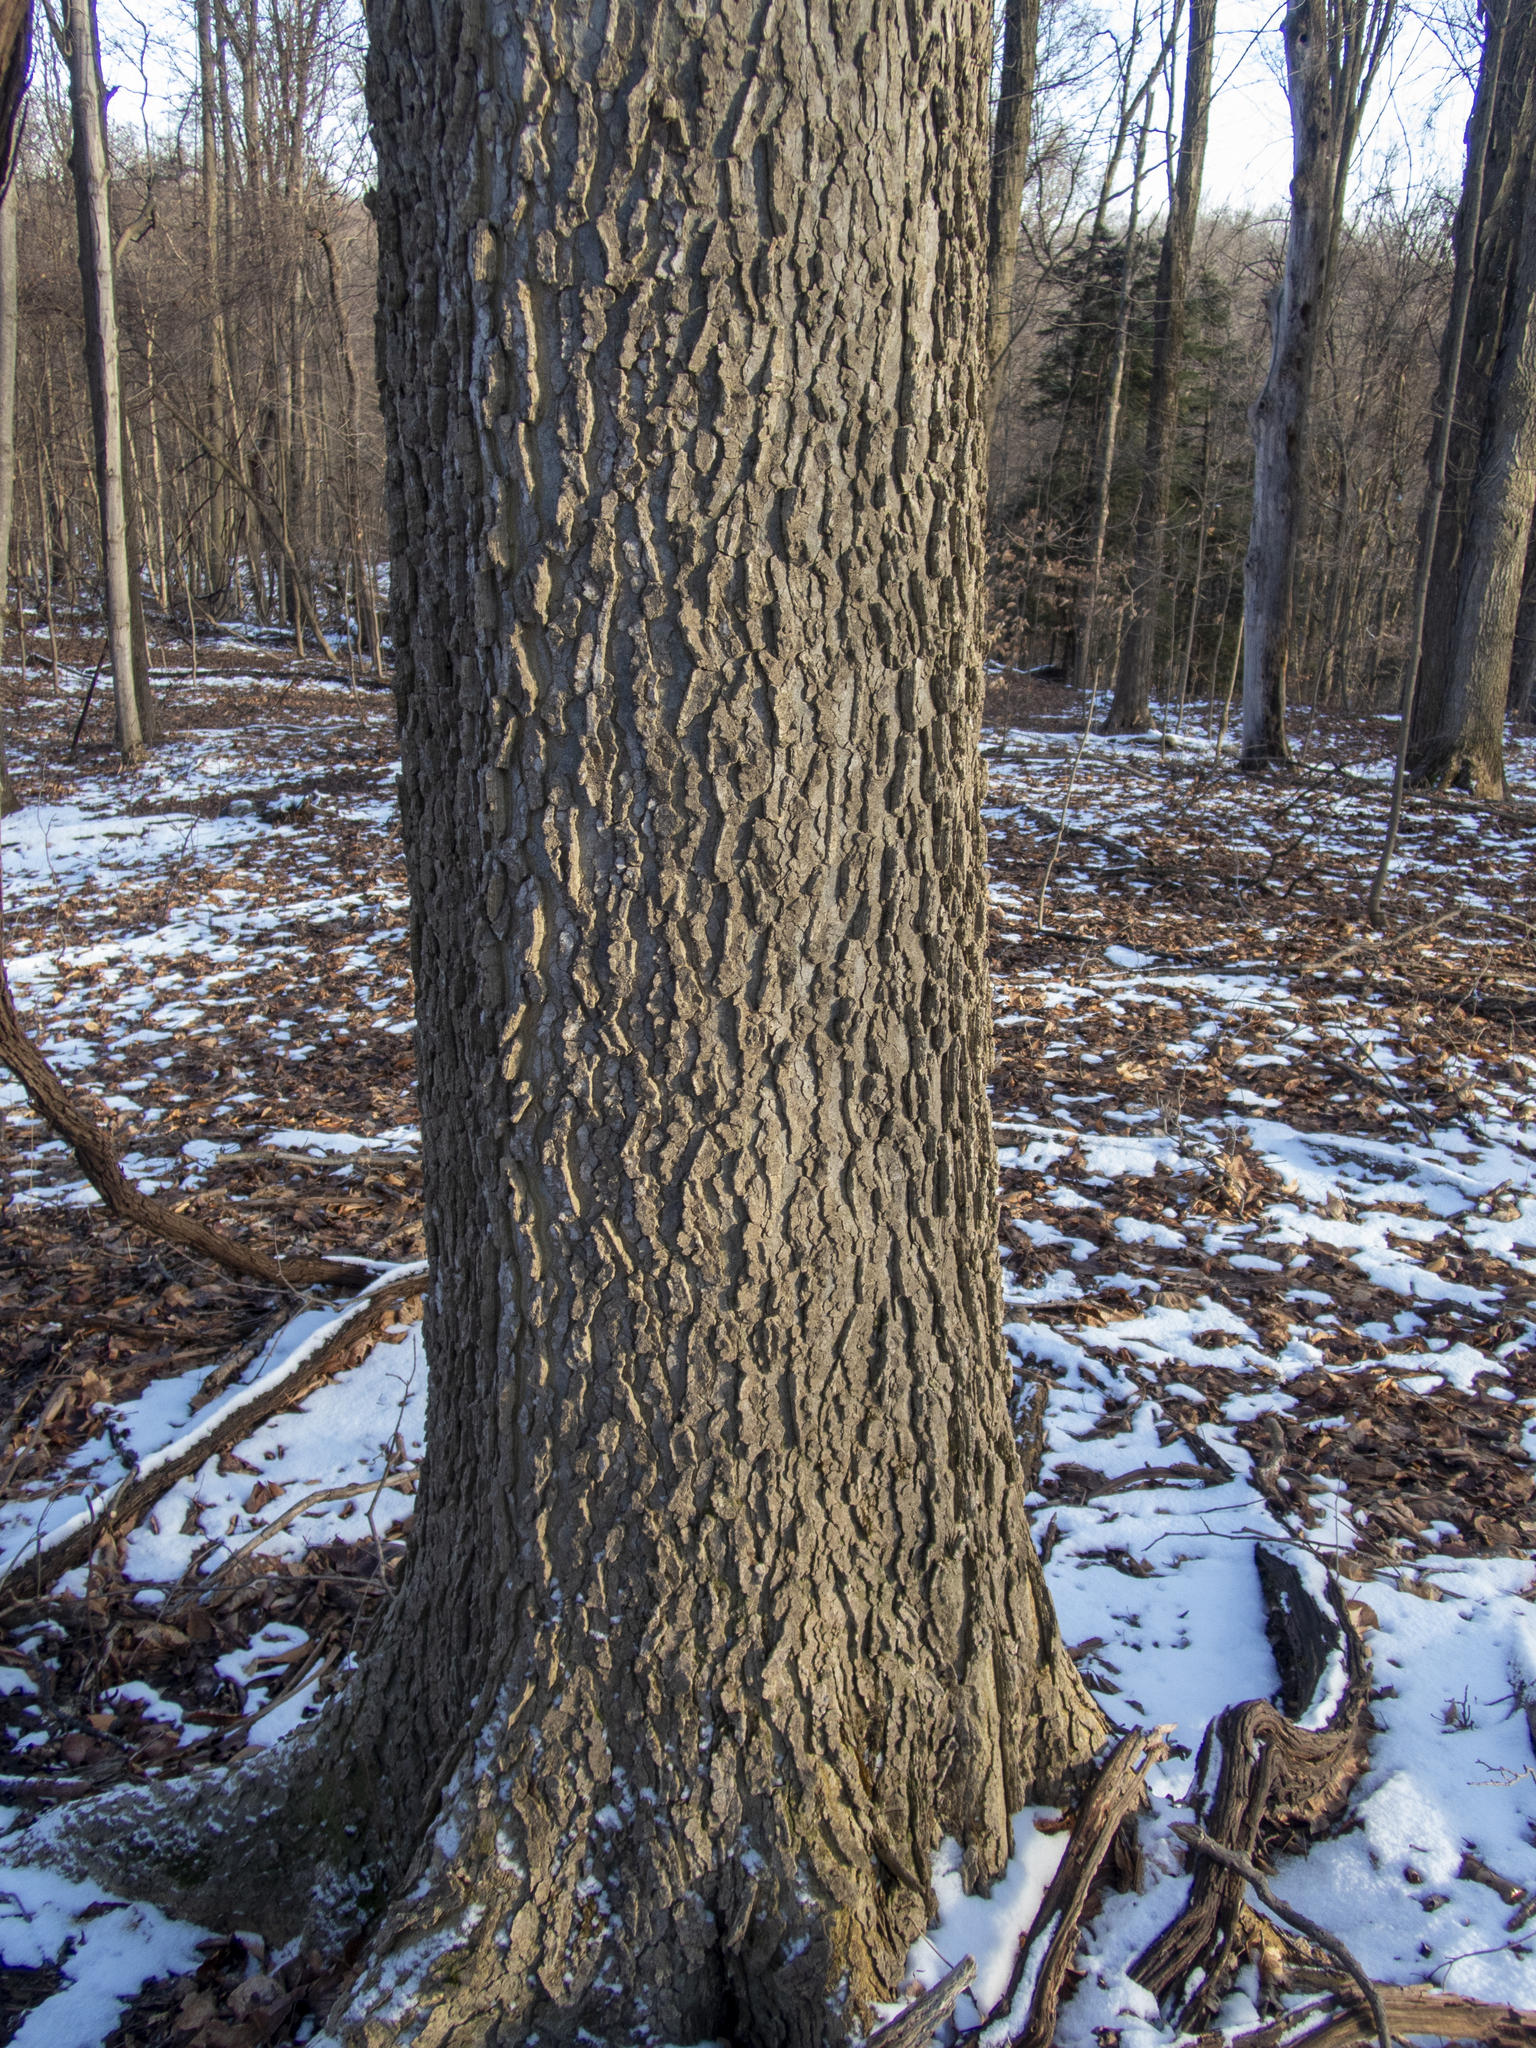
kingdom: Plantae
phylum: Tracheophyta
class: Magnoliopsida
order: Rosales
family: Cannabaceae
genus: Celtis
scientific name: Celtis occidentalis
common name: Common hackberry
